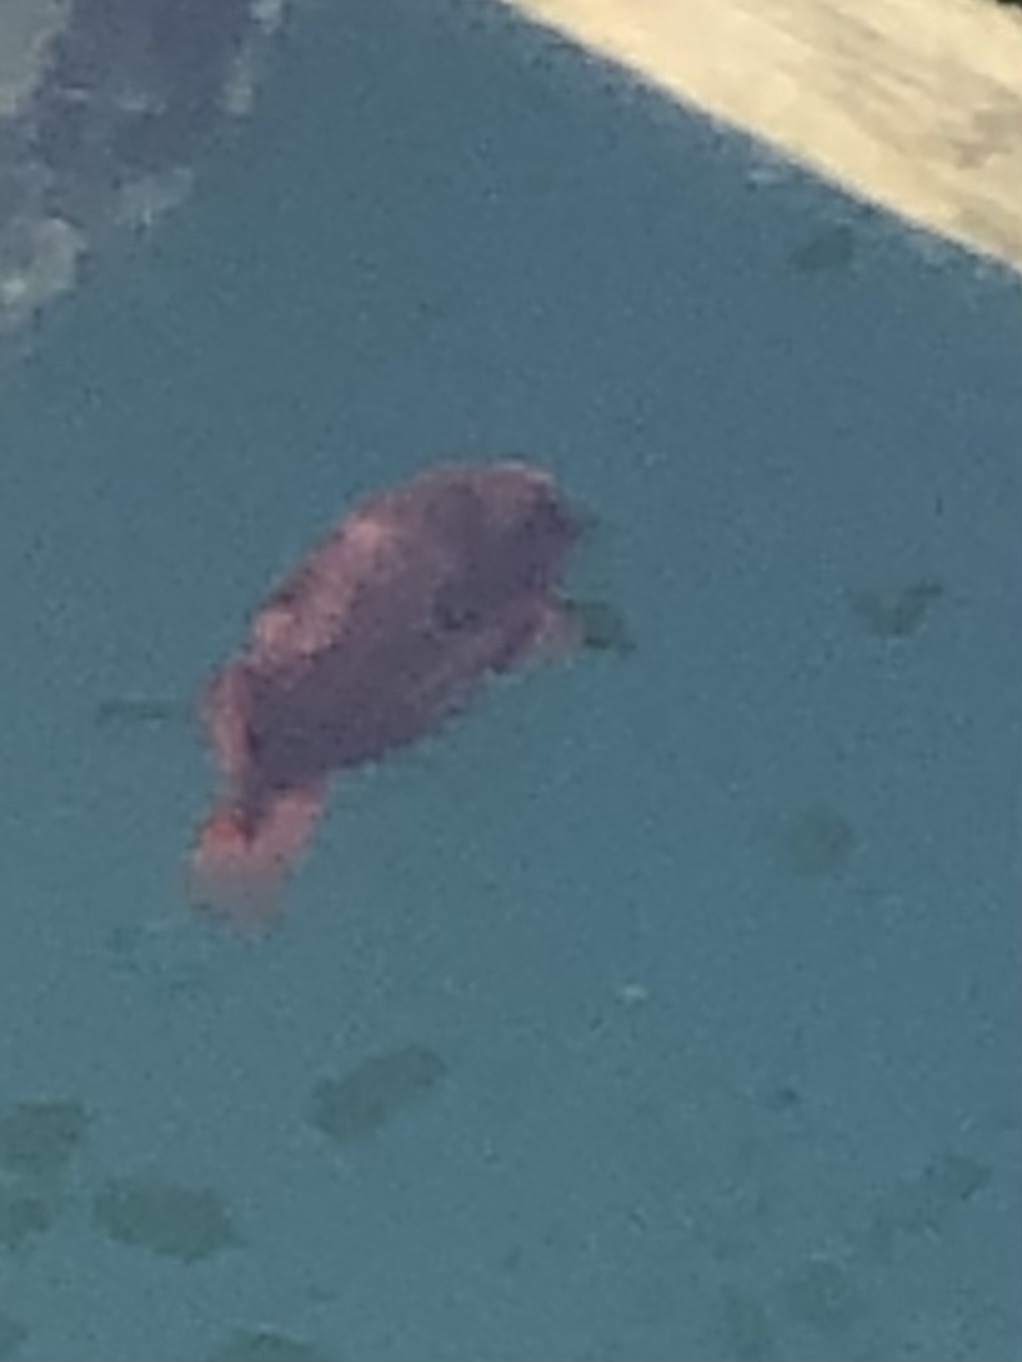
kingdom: Animalia
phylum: Chordata
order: Scorpaeniformes
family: Cyclopteridae
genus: Cyclopterus
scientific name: Cyclopterus lumpus
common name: Lumpsucker
